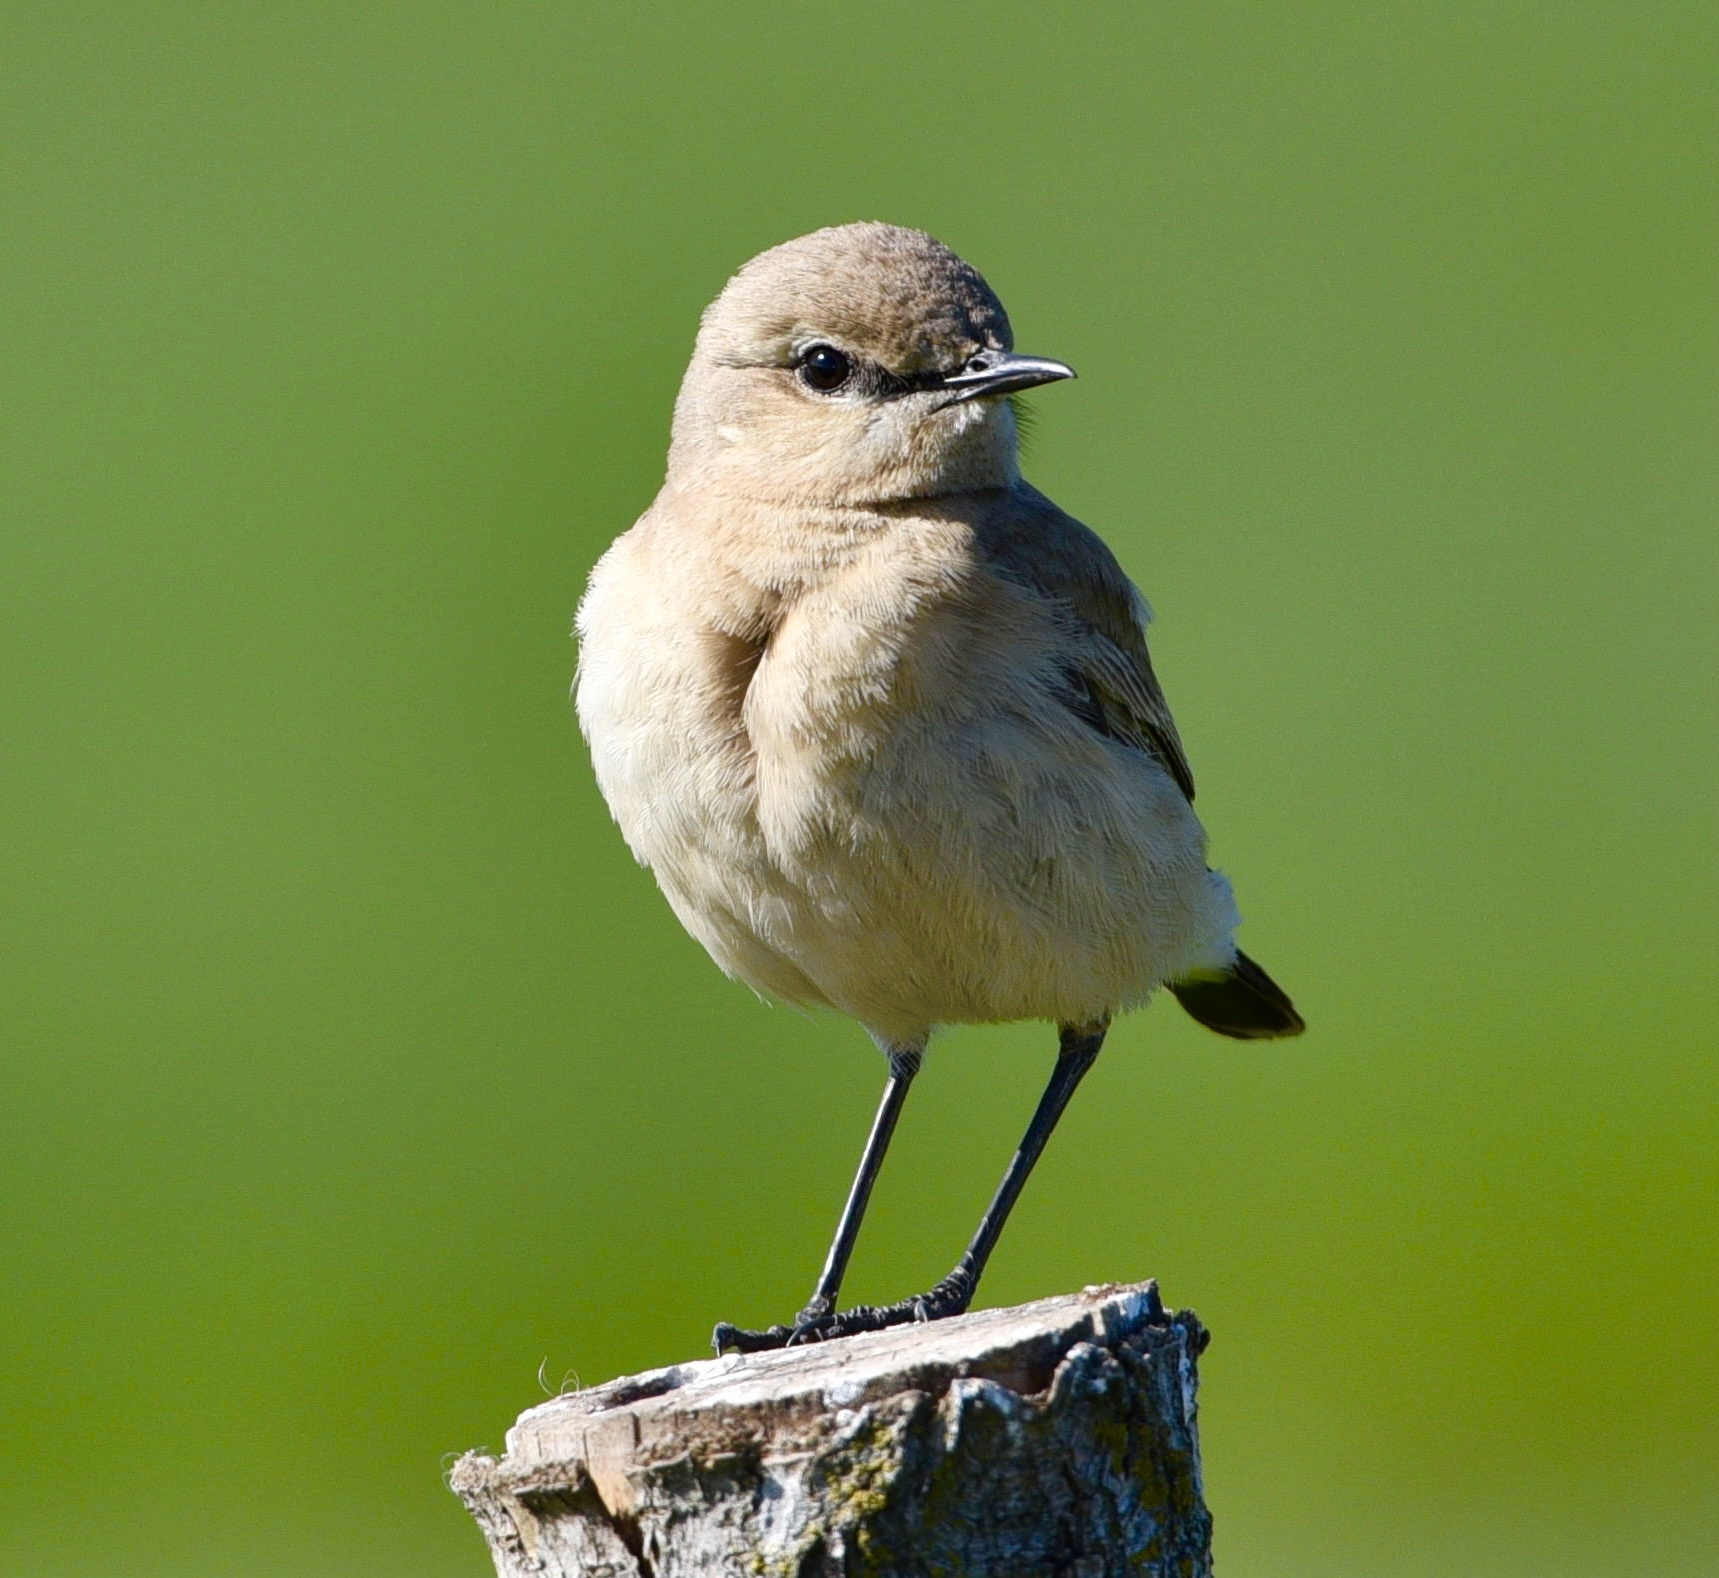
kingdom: Animalia
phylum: Chordata
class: Aves
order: Passeriformes
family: Muscicapidae
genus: Oenanthe
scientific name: Oenanthe isabellina
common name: Isabelline wheatear
